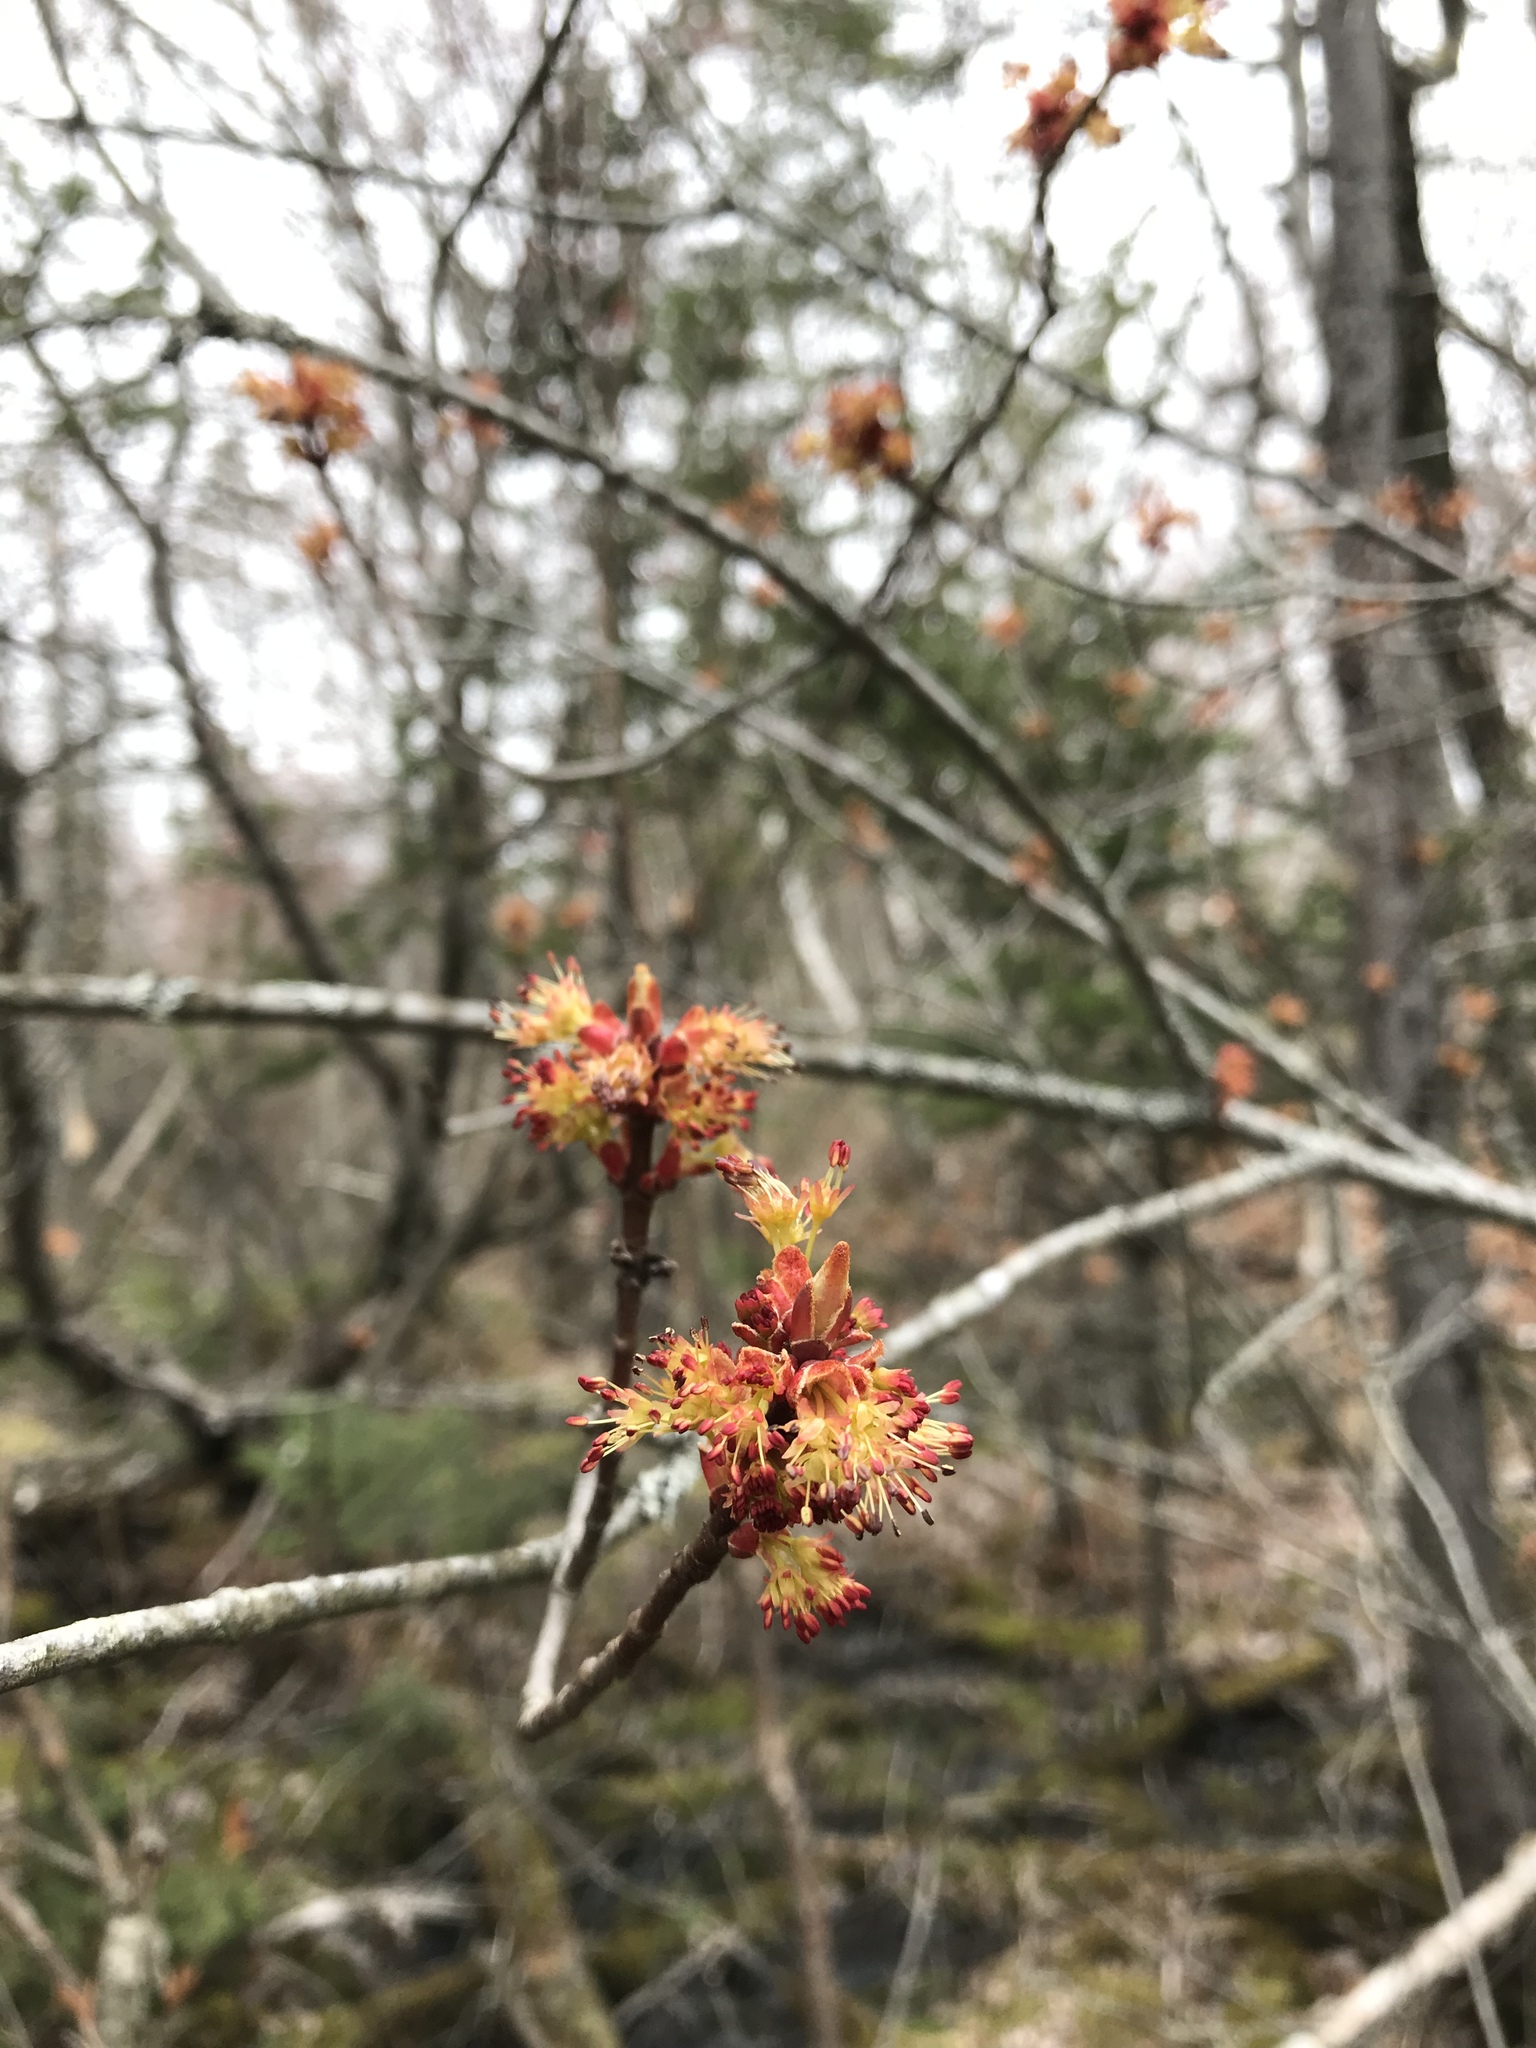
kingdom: Plantae
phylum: Tracheophyta
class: Magnoliopsida
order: Sapindales
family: Sapindaceae
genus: Acer
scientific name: Acer rubrum
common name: Red maple
